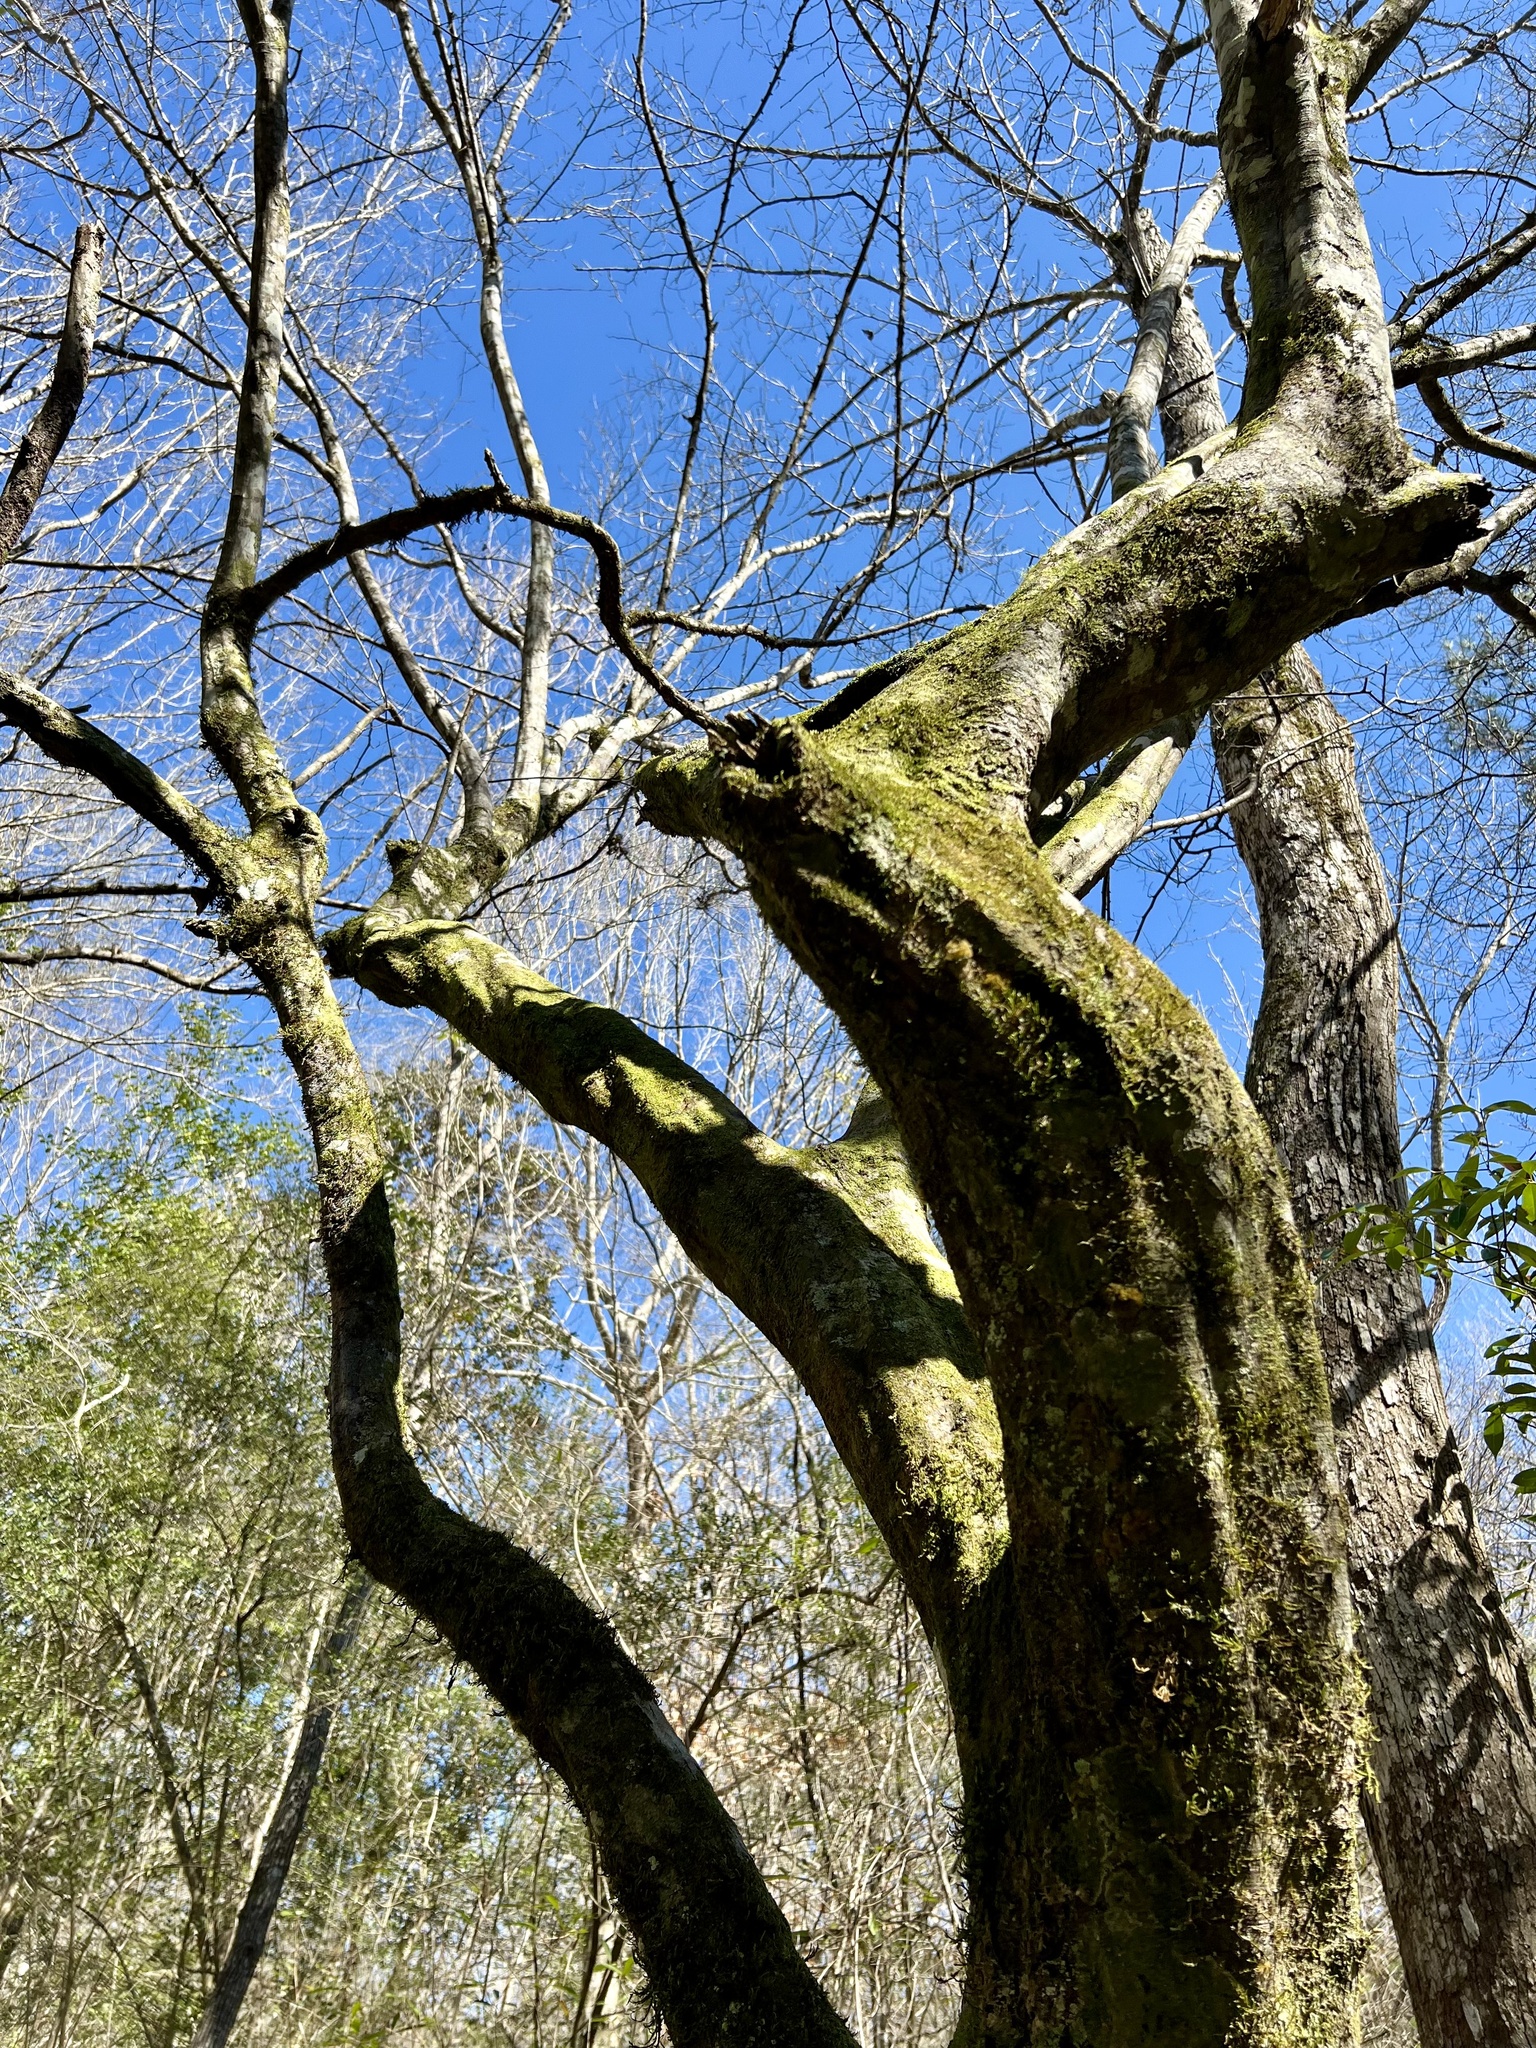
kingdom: Plantae
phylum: Tracheophyta
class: Magnoliopsida
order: Fagales
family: Betulaceae
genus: Carpinus
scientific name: Carpinus caroliniana
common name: American hornbeam
